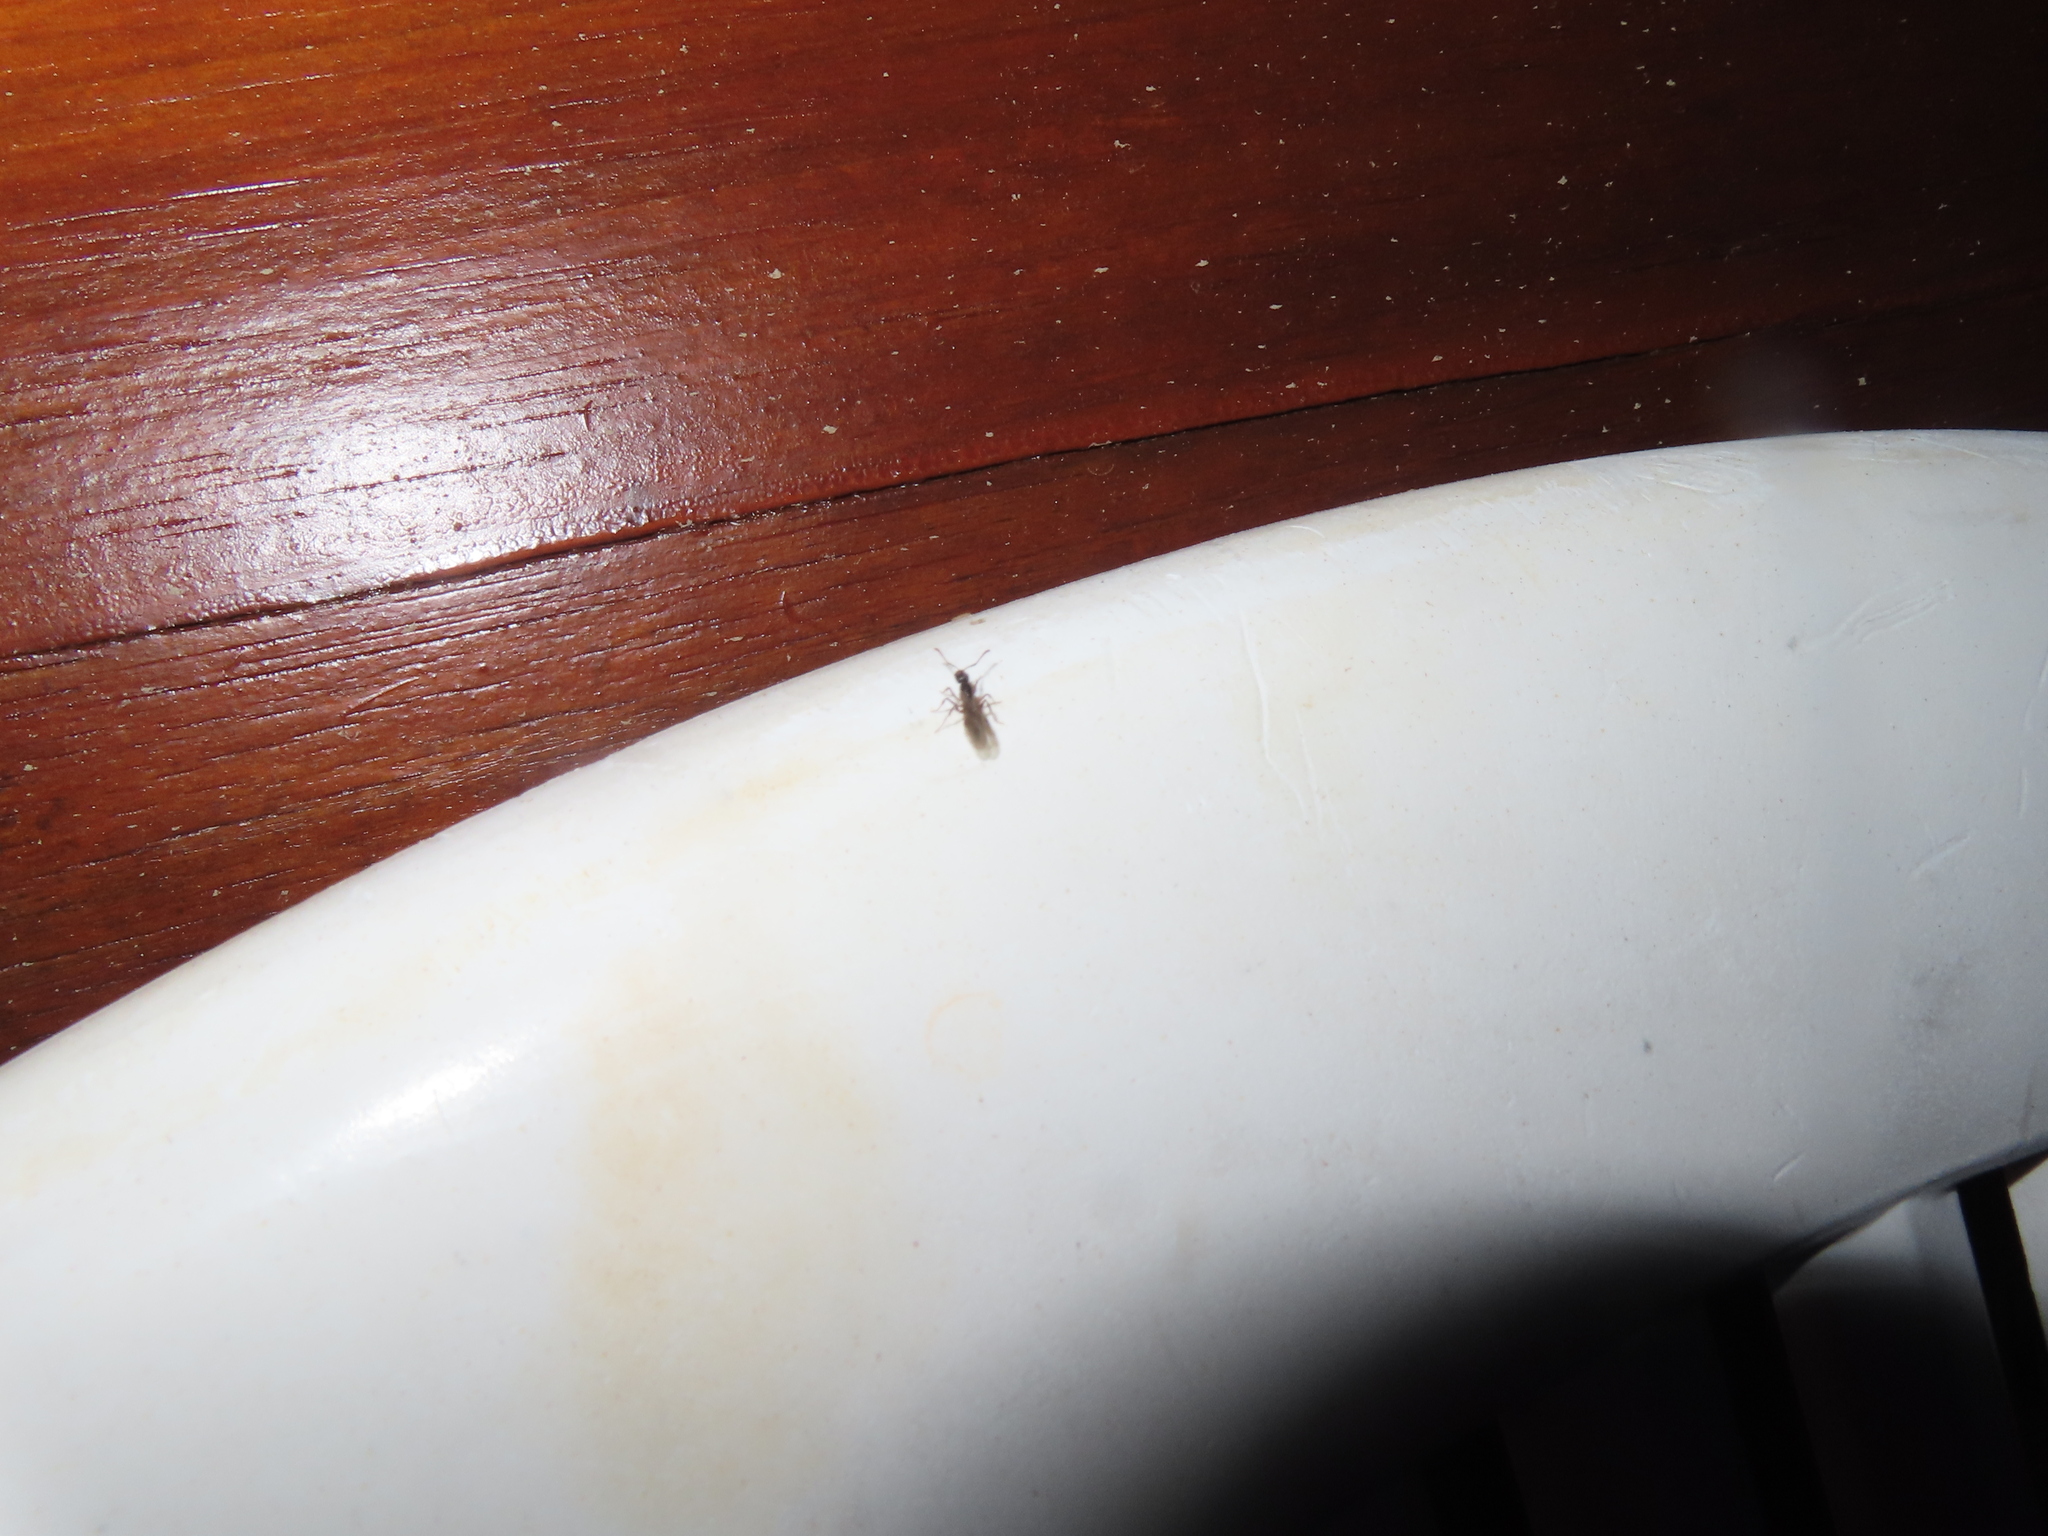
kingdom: Animalia
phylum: Arthropoda
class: Insecta
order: Hymenoptera
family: Formicidae
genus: Pachycondyla
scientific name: Pachycondyla chinensis
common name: Asian needle ant
